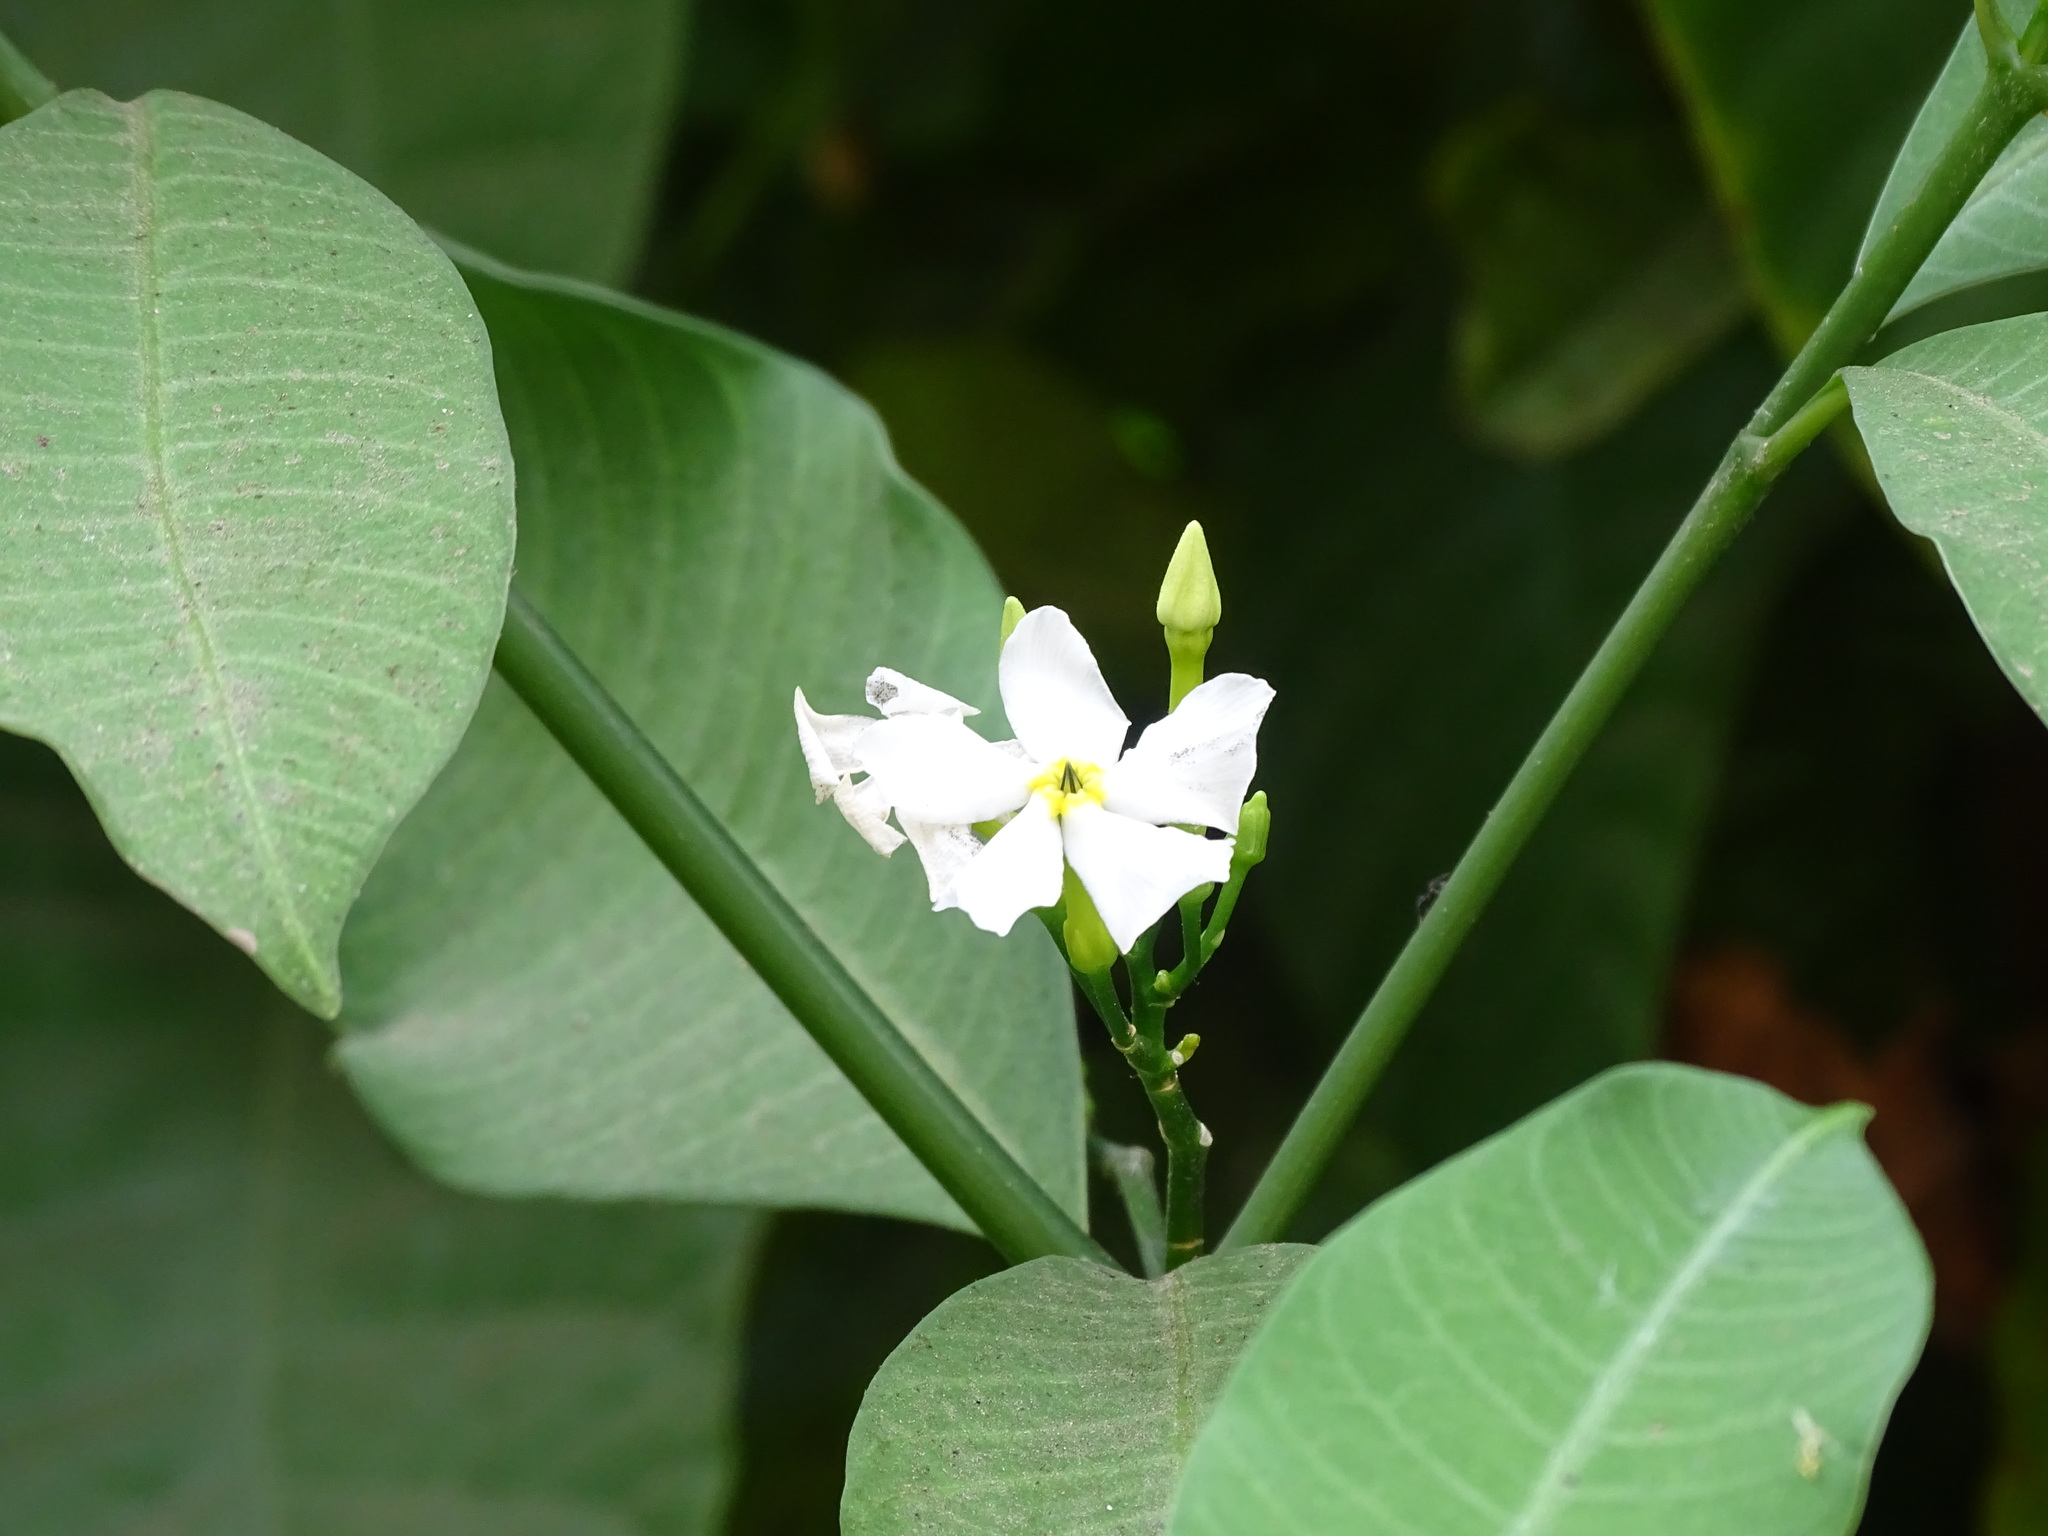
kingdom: Plantae
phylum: Tracheophyta
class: Magnoliopsida
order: Gentianales
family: Apocynaceae
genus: Tabernaemontana
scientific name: Tabernaemontana amygdalifolia
